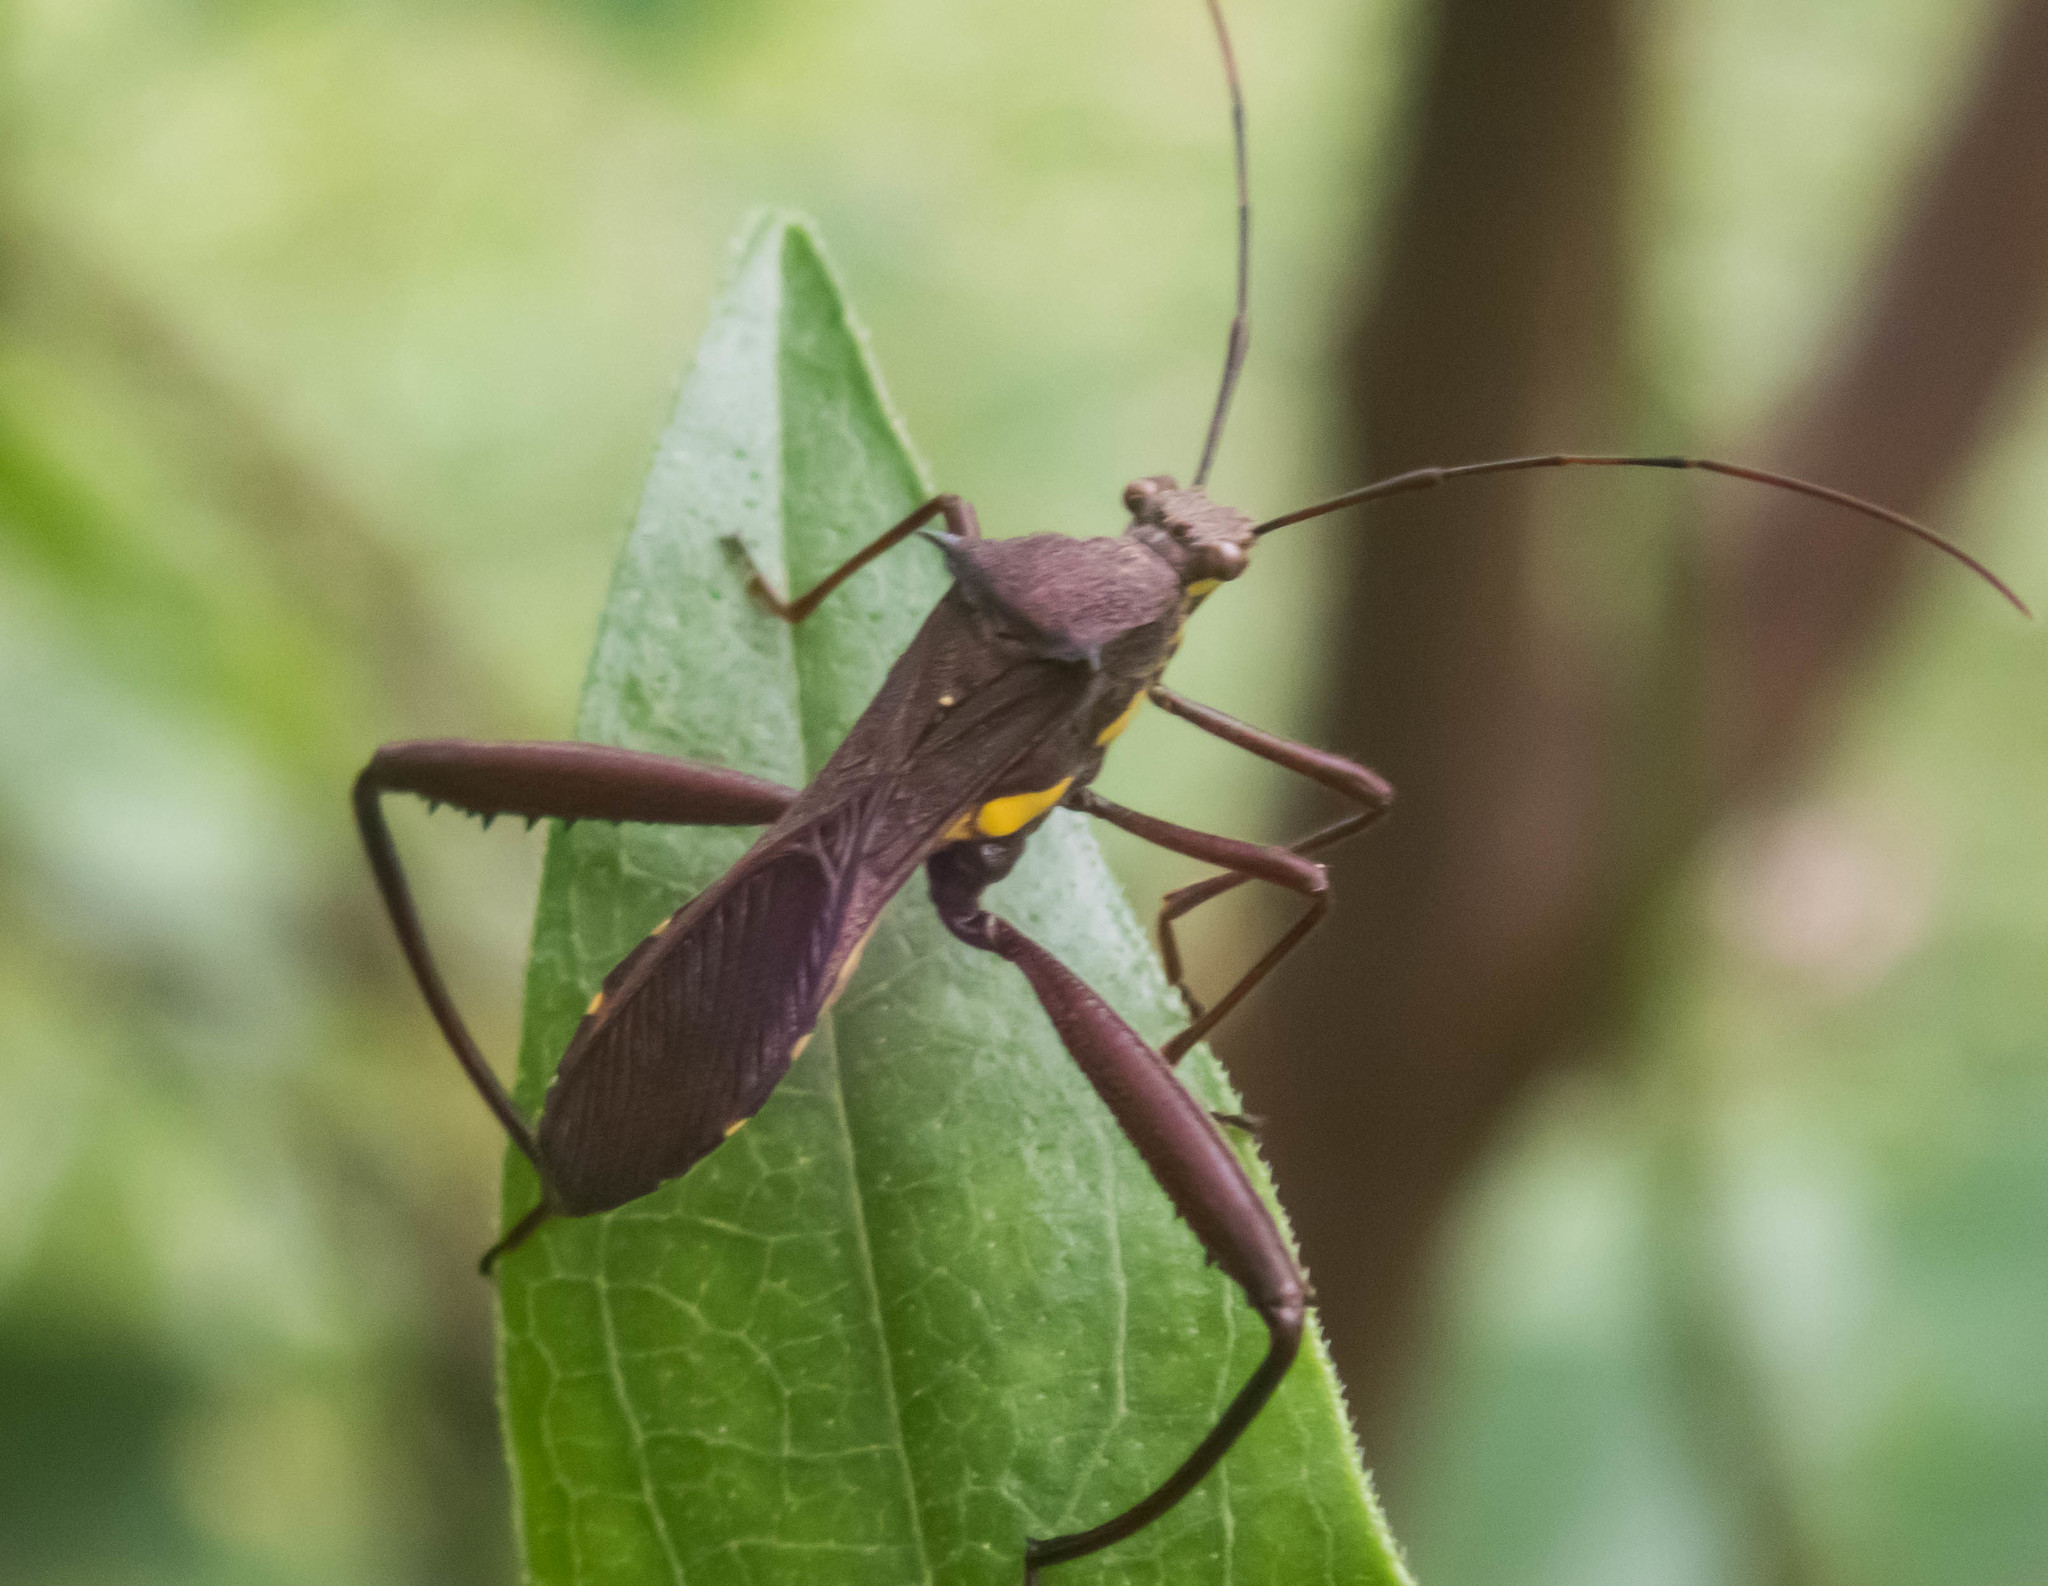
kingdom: Animalia
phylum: Arthropoda
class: Insecta
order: Hemiptera
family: Alydidae
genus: Riptortus
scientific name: Riptortus serripes
